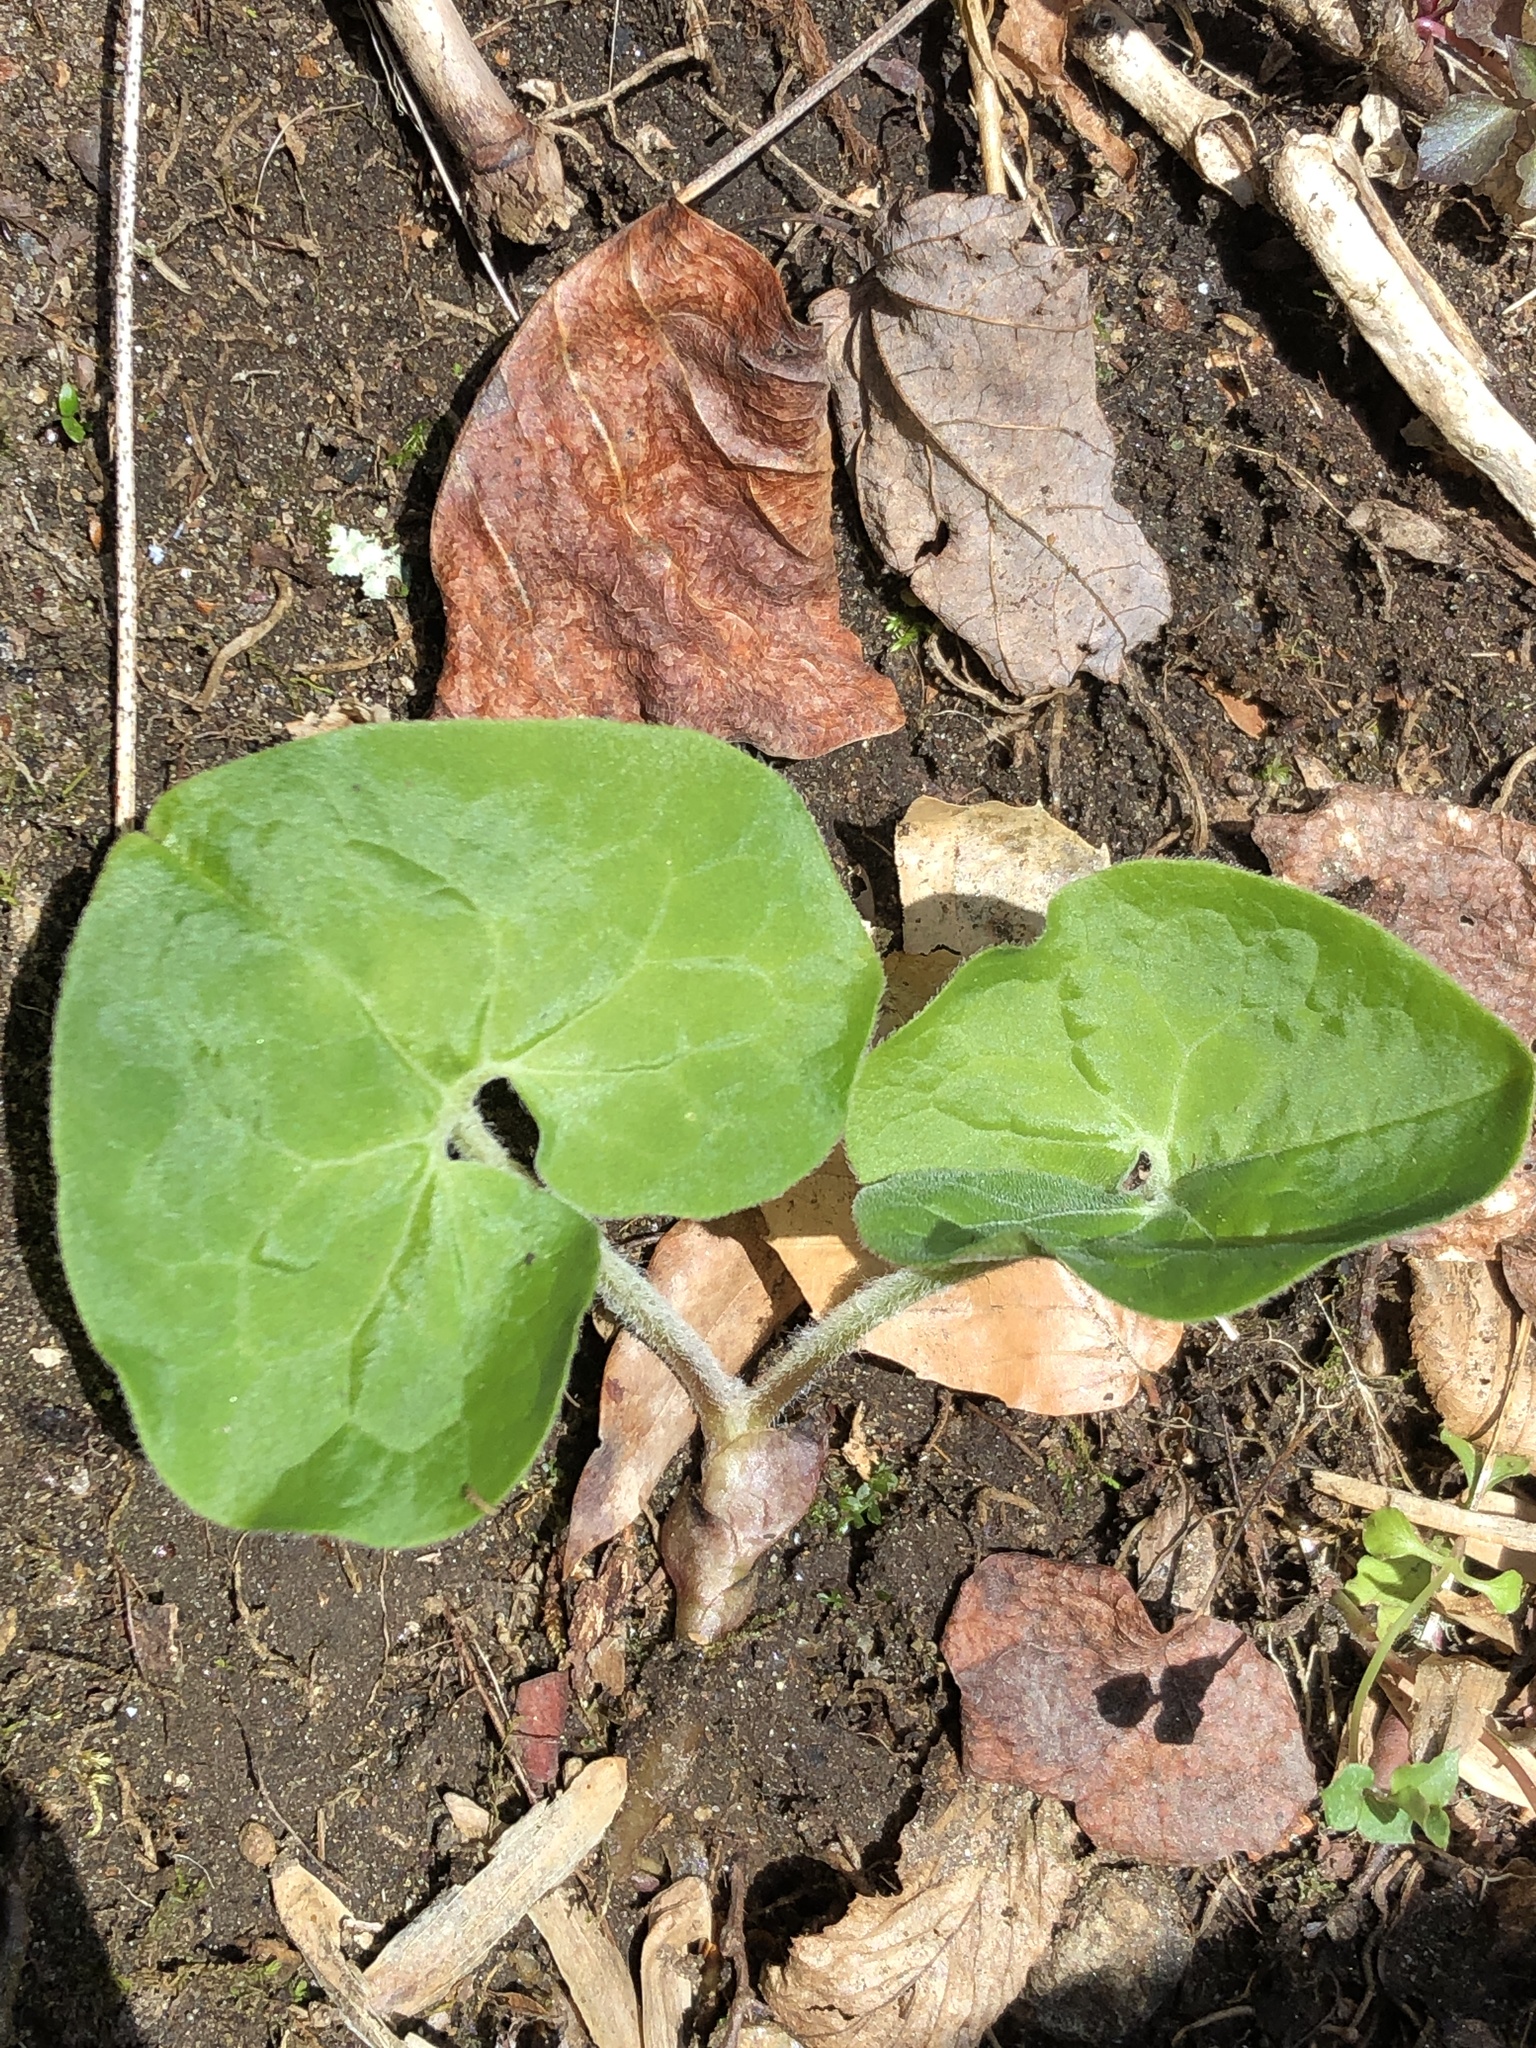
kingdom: Plantae
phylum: Tracheophyta
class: Magnoliopsida
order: Piperales
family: Aristolochiaceae
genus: Asarum
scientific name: Asarum canadense
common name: Wild ginger
